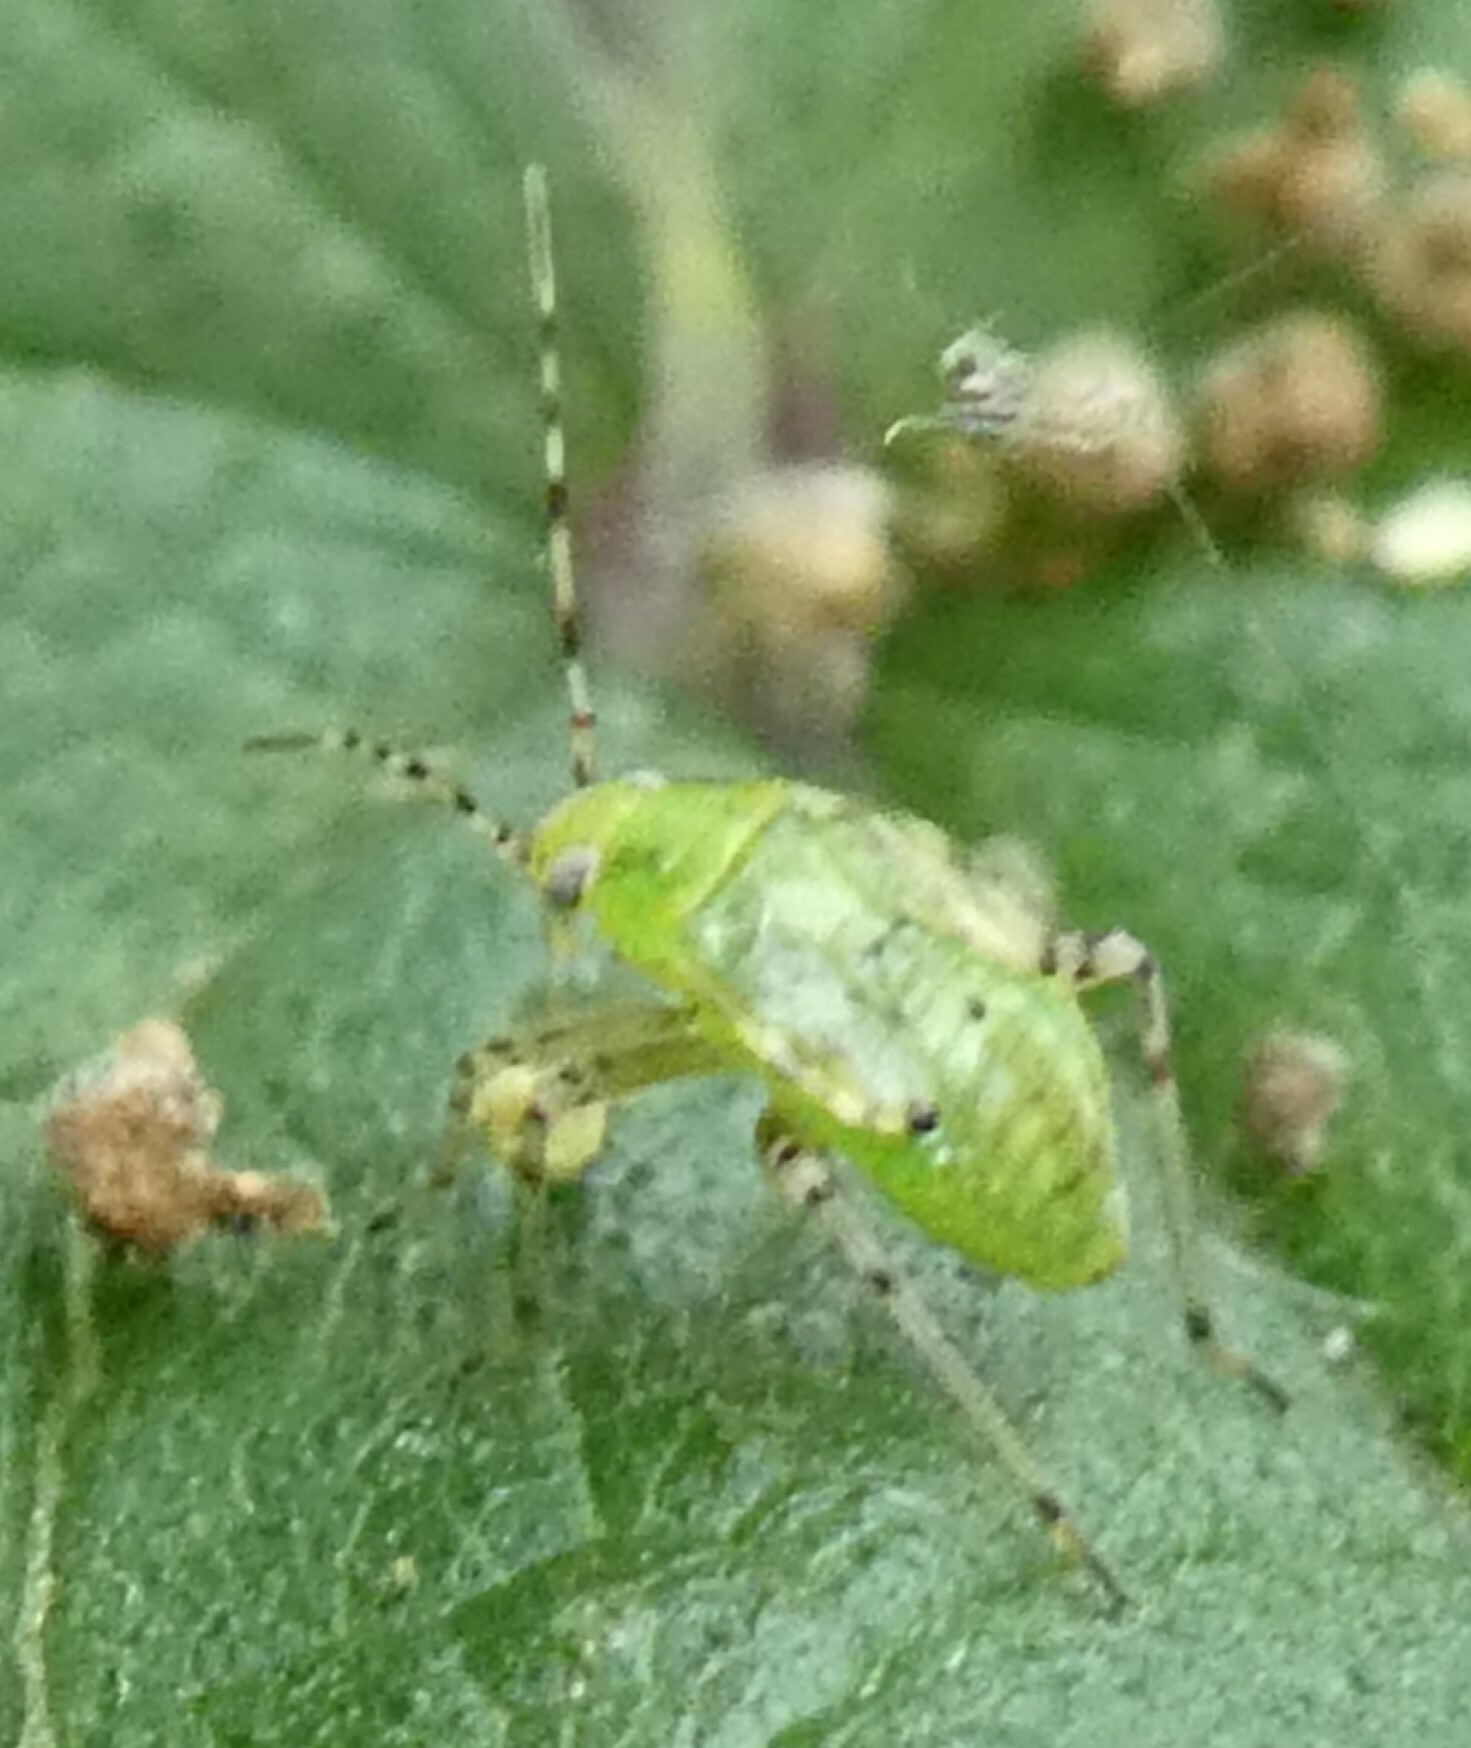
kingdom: Animalia
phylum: Arthropoda
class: Insecta
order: Hemiptera
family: Miridae
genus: Liocoris
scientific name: Liocoris tripustulatus
